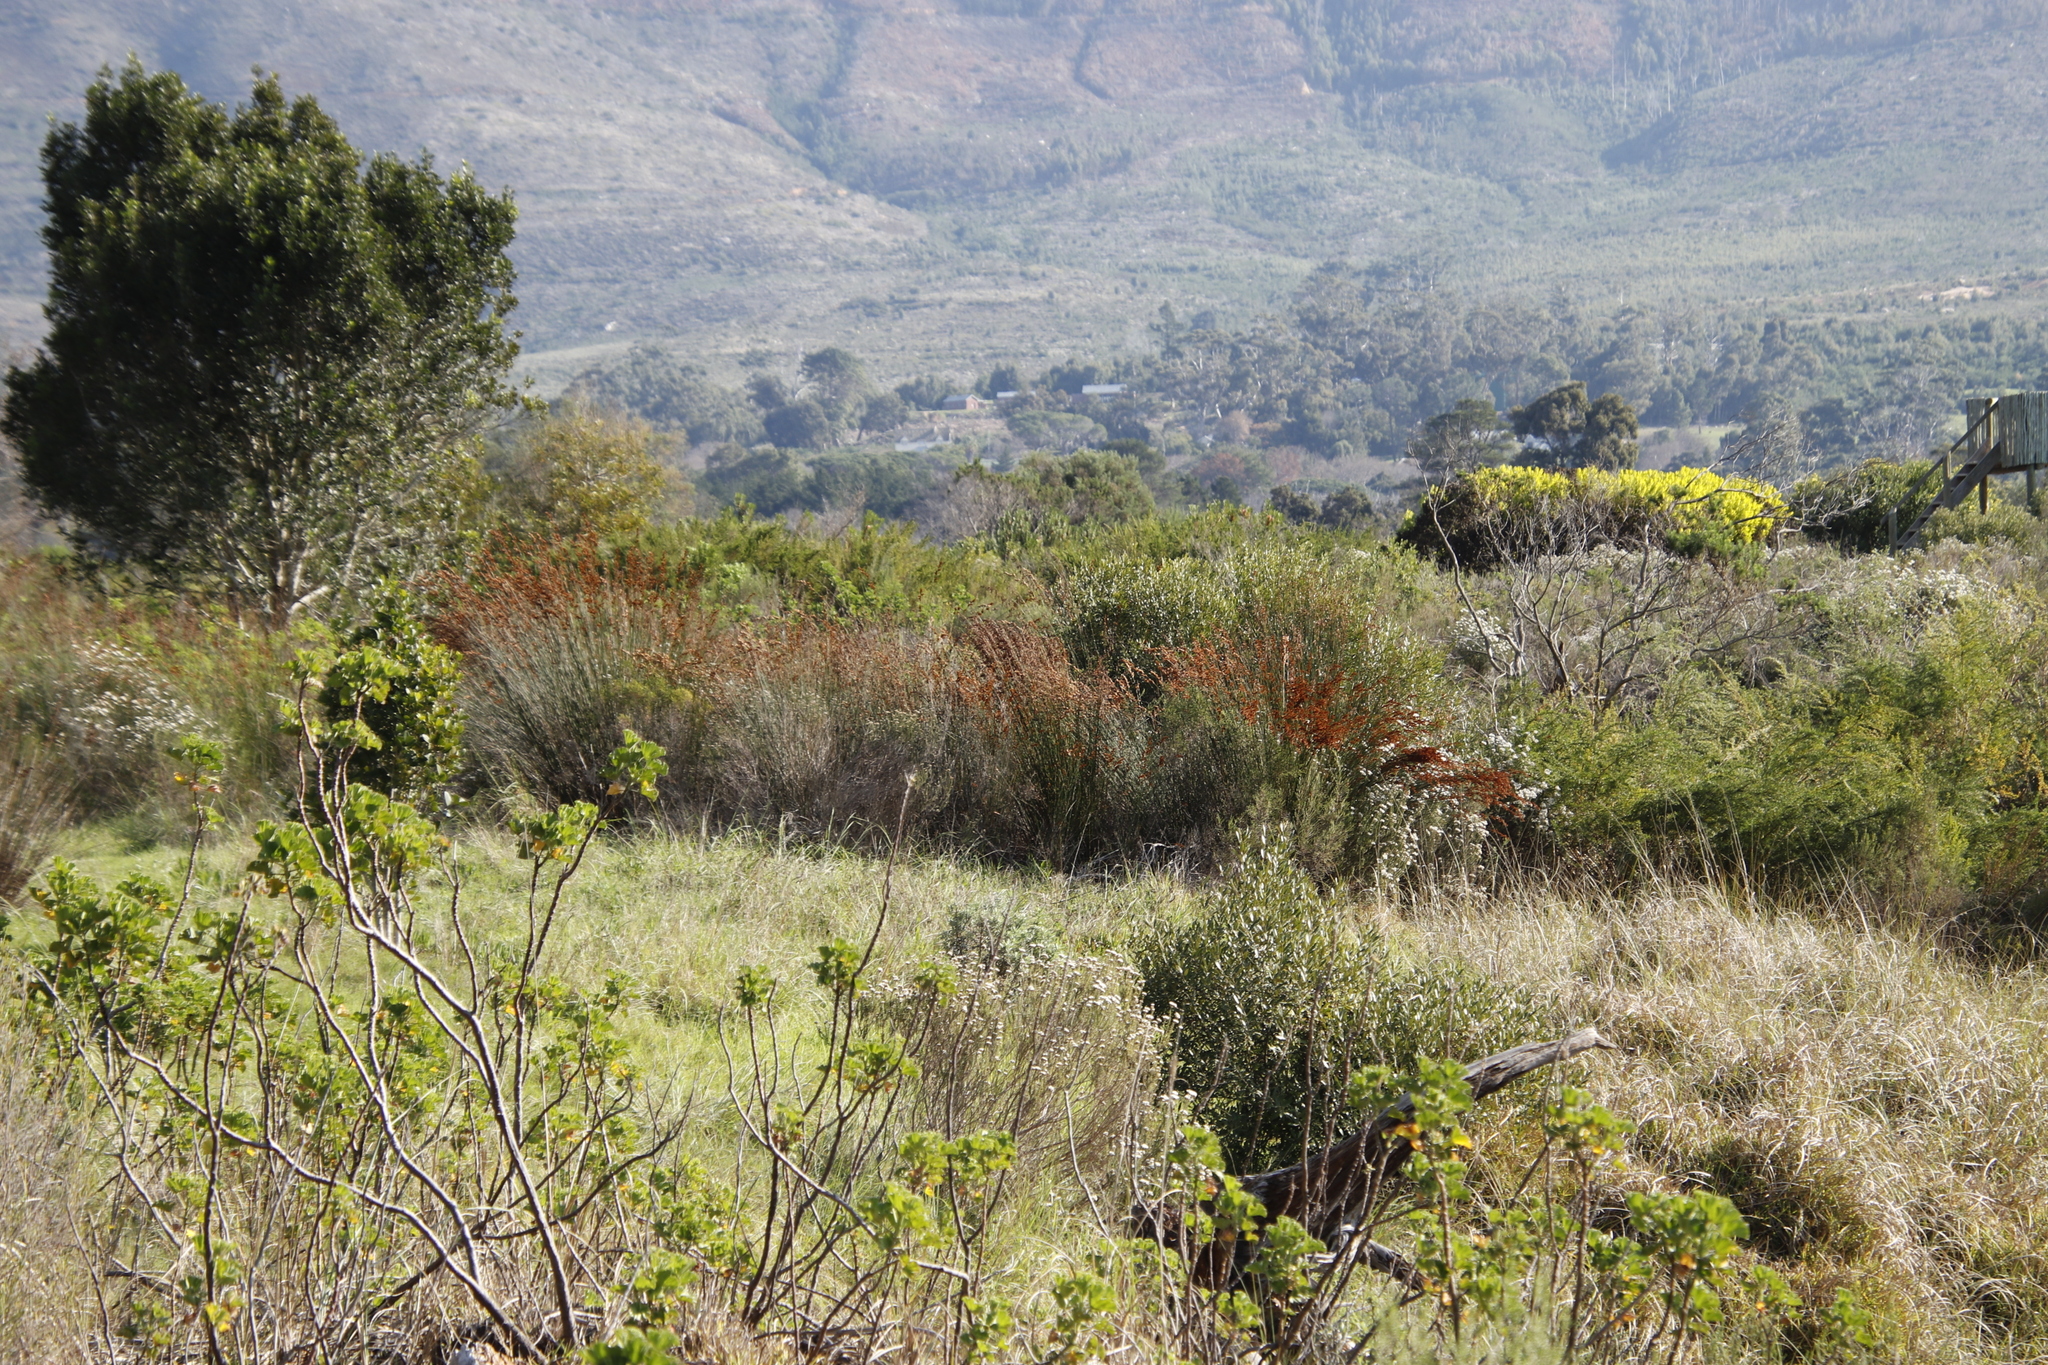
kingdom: Plantae
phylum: Tracheophyta
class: Liliopsida
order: Poales
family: Restionaceae
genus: Thamnochortus
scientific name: Thamnochortus insignis
